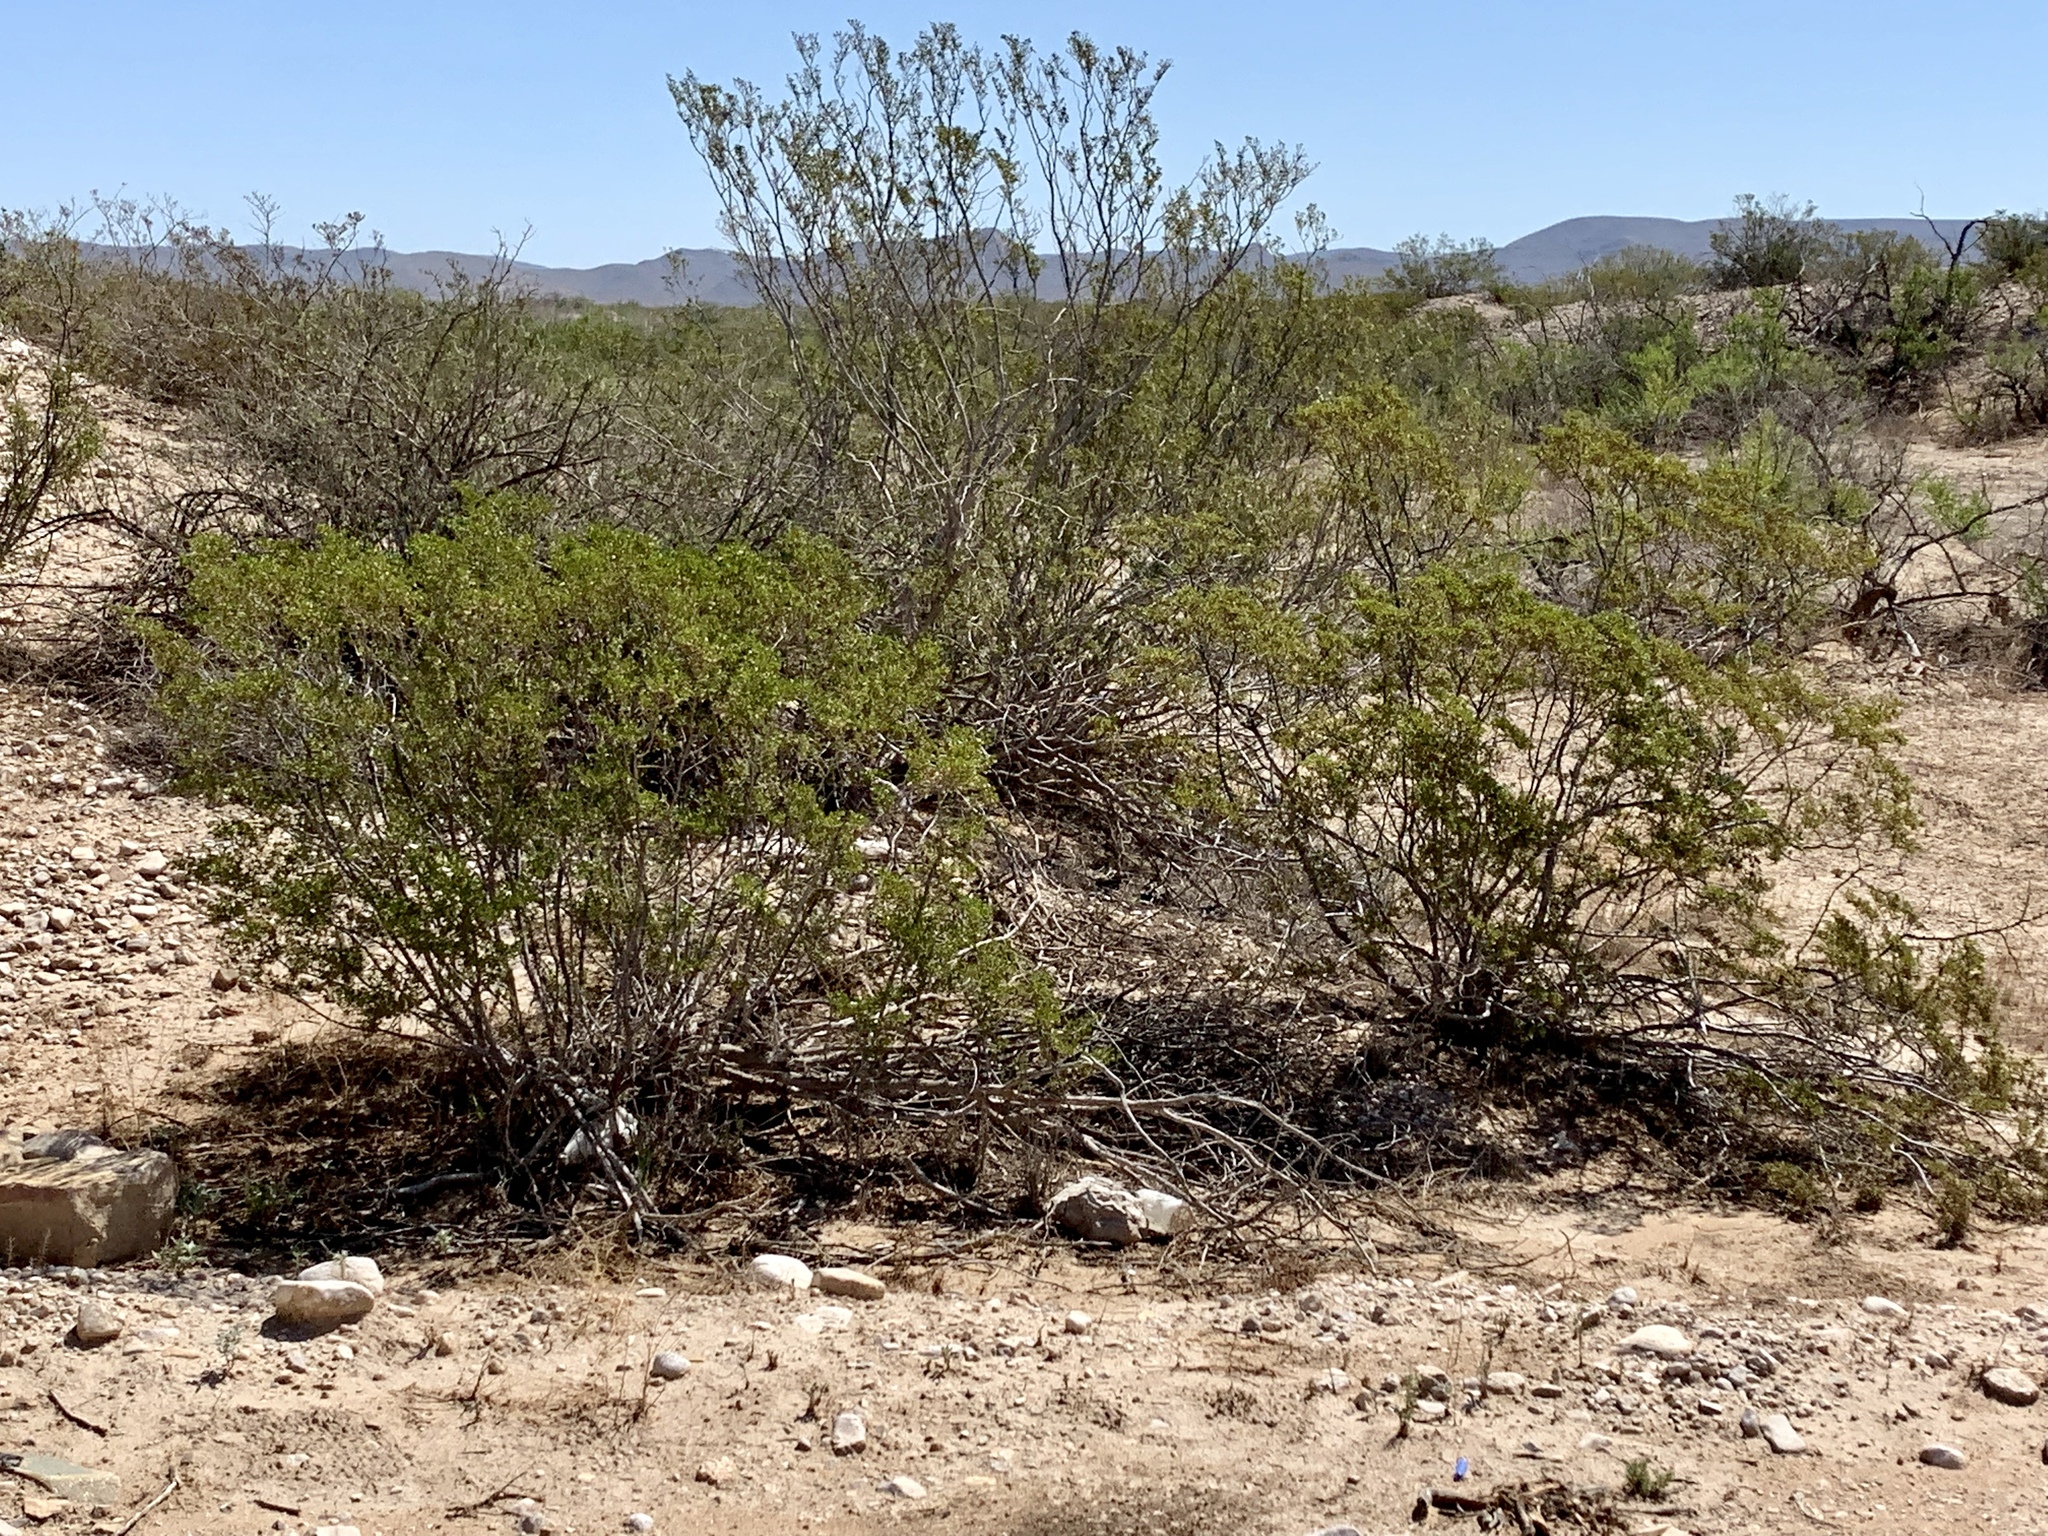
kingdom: Plantae
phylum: Tracheophyta
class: Magnoliopsida
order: Zygophyllales
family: Zygophyllaceae
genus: Larrea
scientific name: Larrea tridentata
